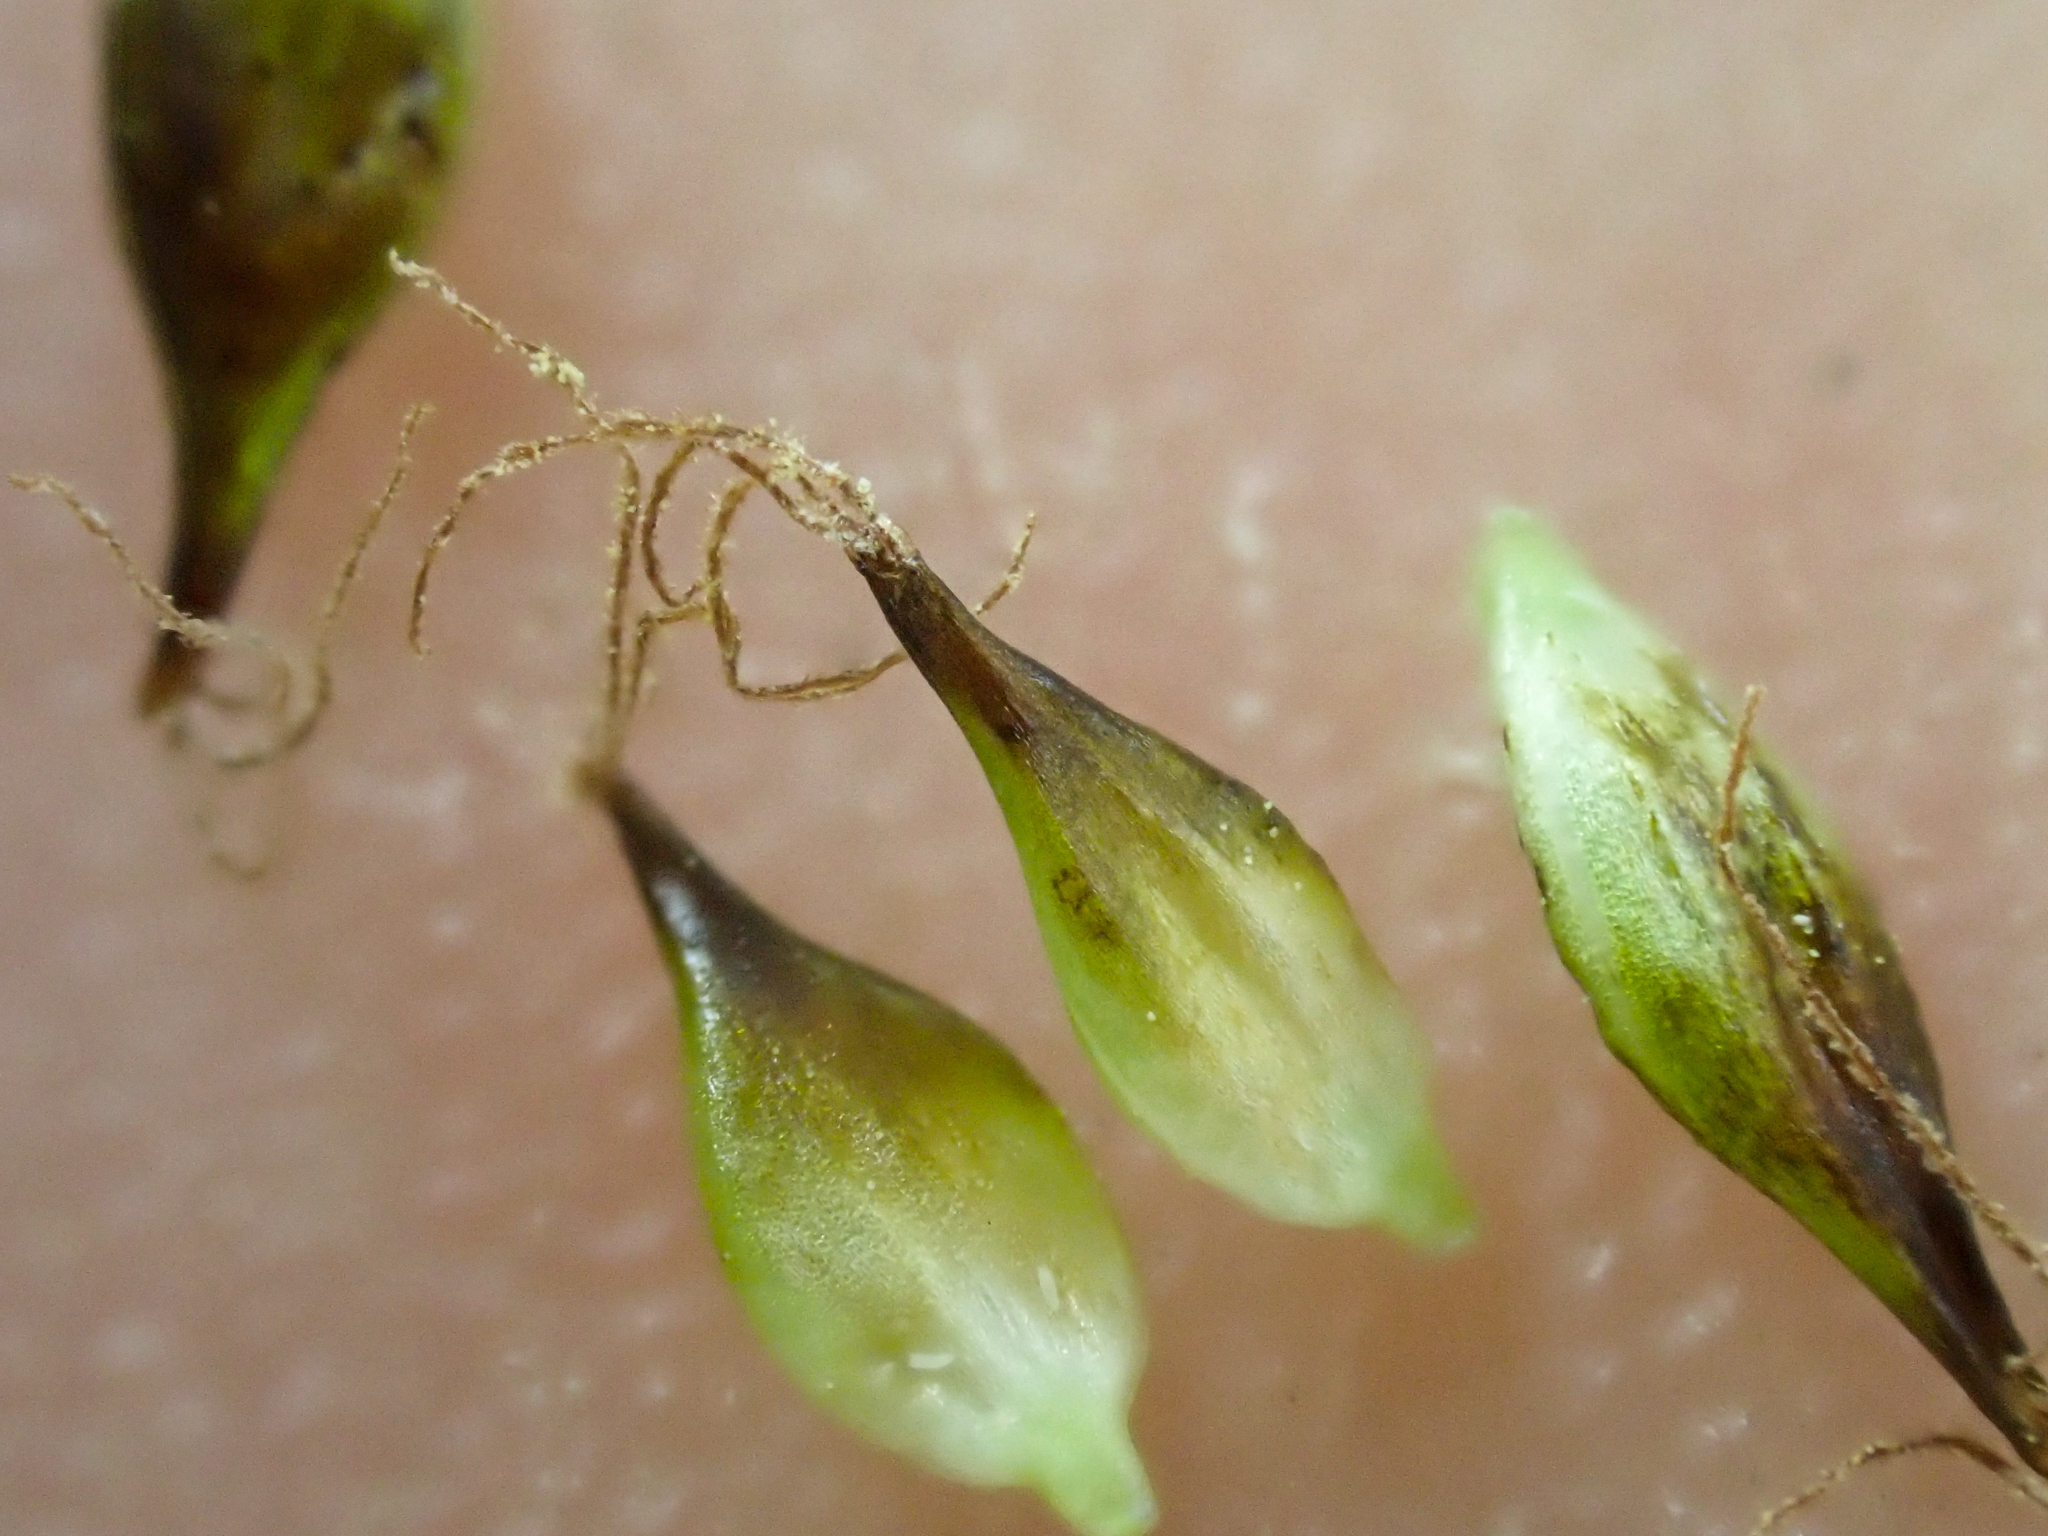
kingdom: Plantae
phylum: Tracheophyta
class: Liliopsida
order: Poales
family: Cyperaceae
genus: Carex
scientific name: Carex nigricans
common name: Black alpine sedge
